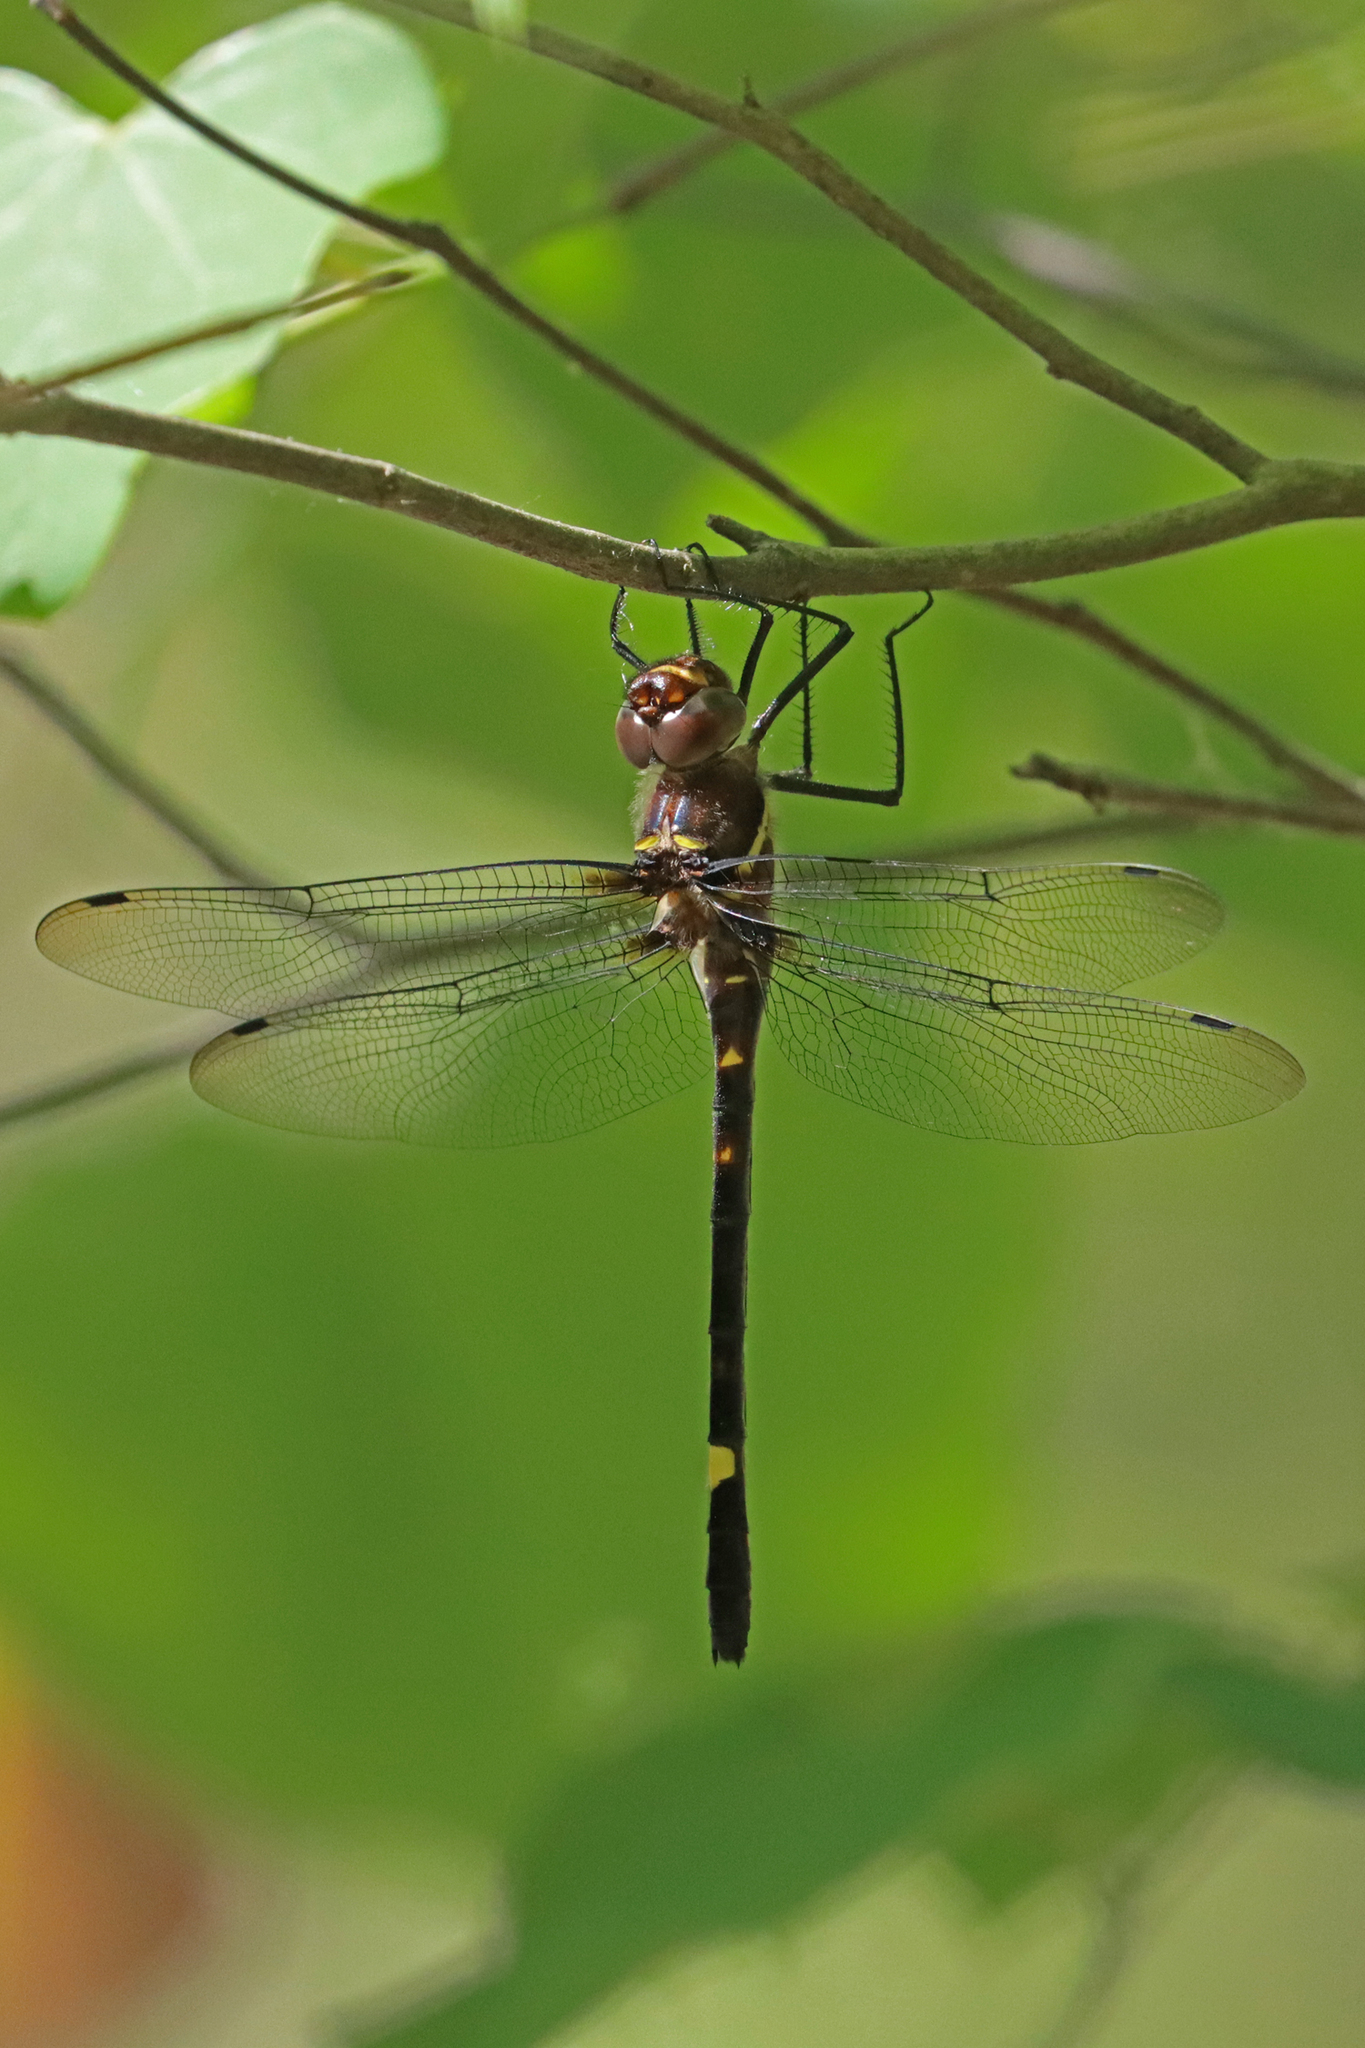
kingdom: Animalia
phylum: Arthropoda
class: Insecta
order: Odonata
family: Macromiidae
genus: Macromia
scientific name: Macromia illinoiensis
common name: Swift river cruiser
